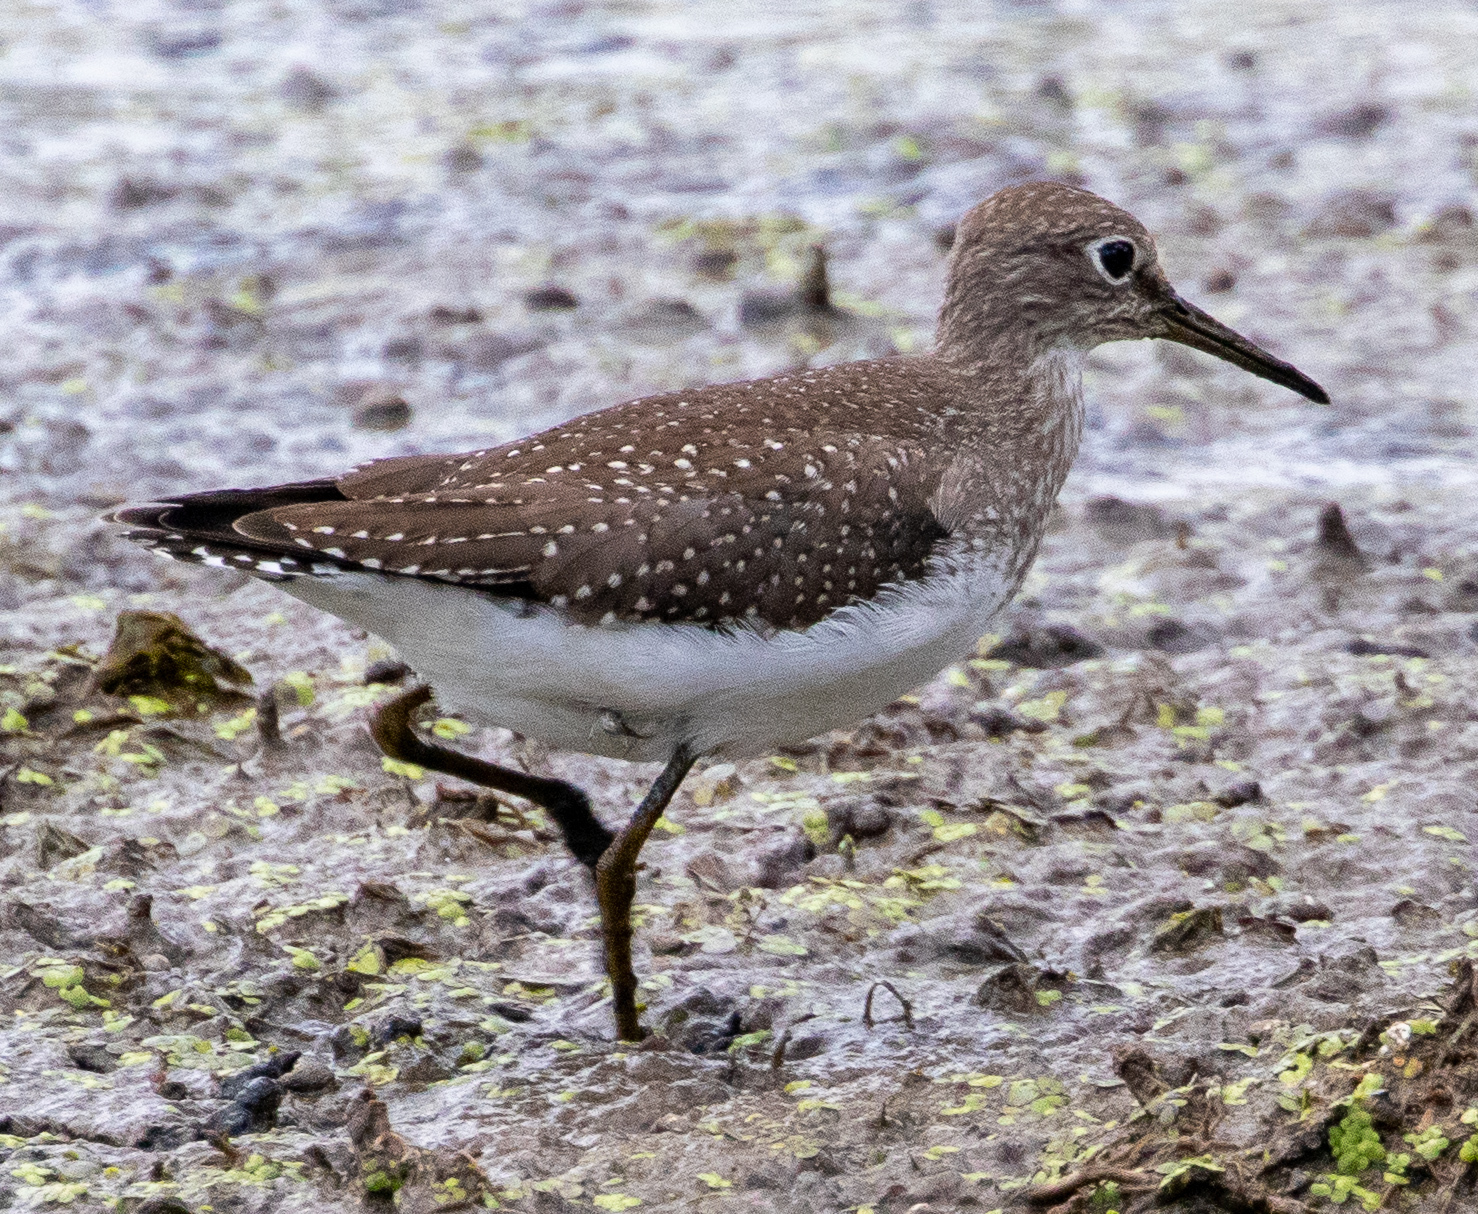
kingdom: Animalia
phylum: Chordata
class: Aves
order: Charadriiformes
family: Scolopacidae
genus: Tringa
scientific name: Tringa solitaria
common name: Solitary sandpiper
